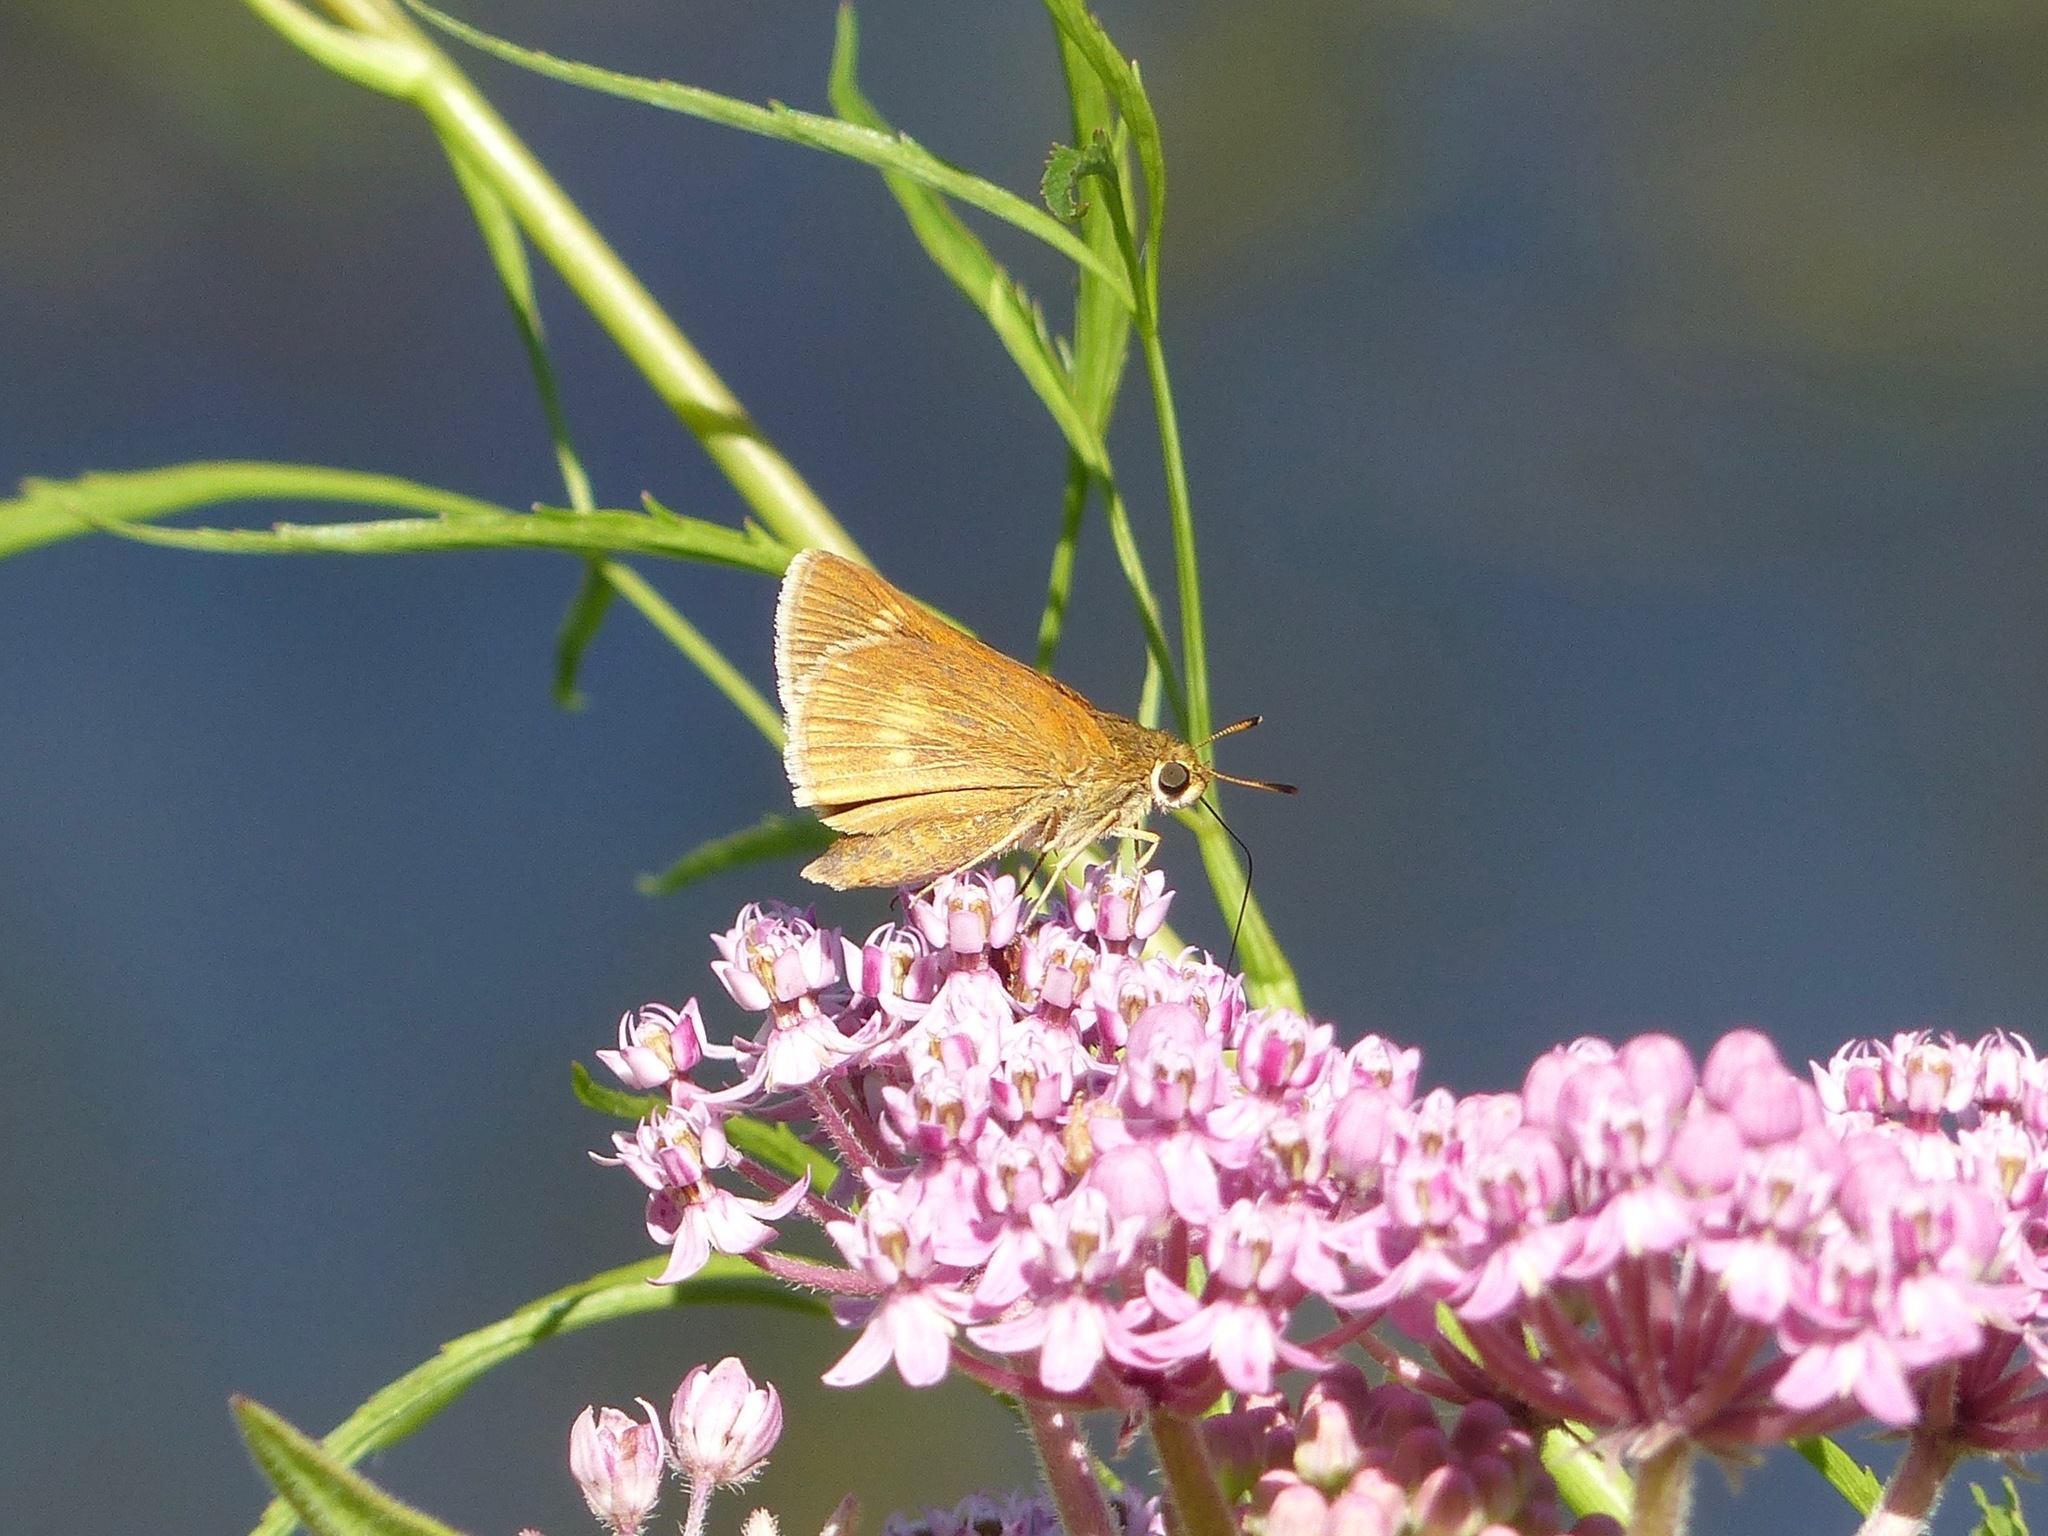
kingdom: Animalia
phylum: Arthropoda
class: Insecta
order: Lepidoptera
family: Hesperiidae
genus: Euphyes
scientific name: Euphyes conspicua
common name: Black dash
